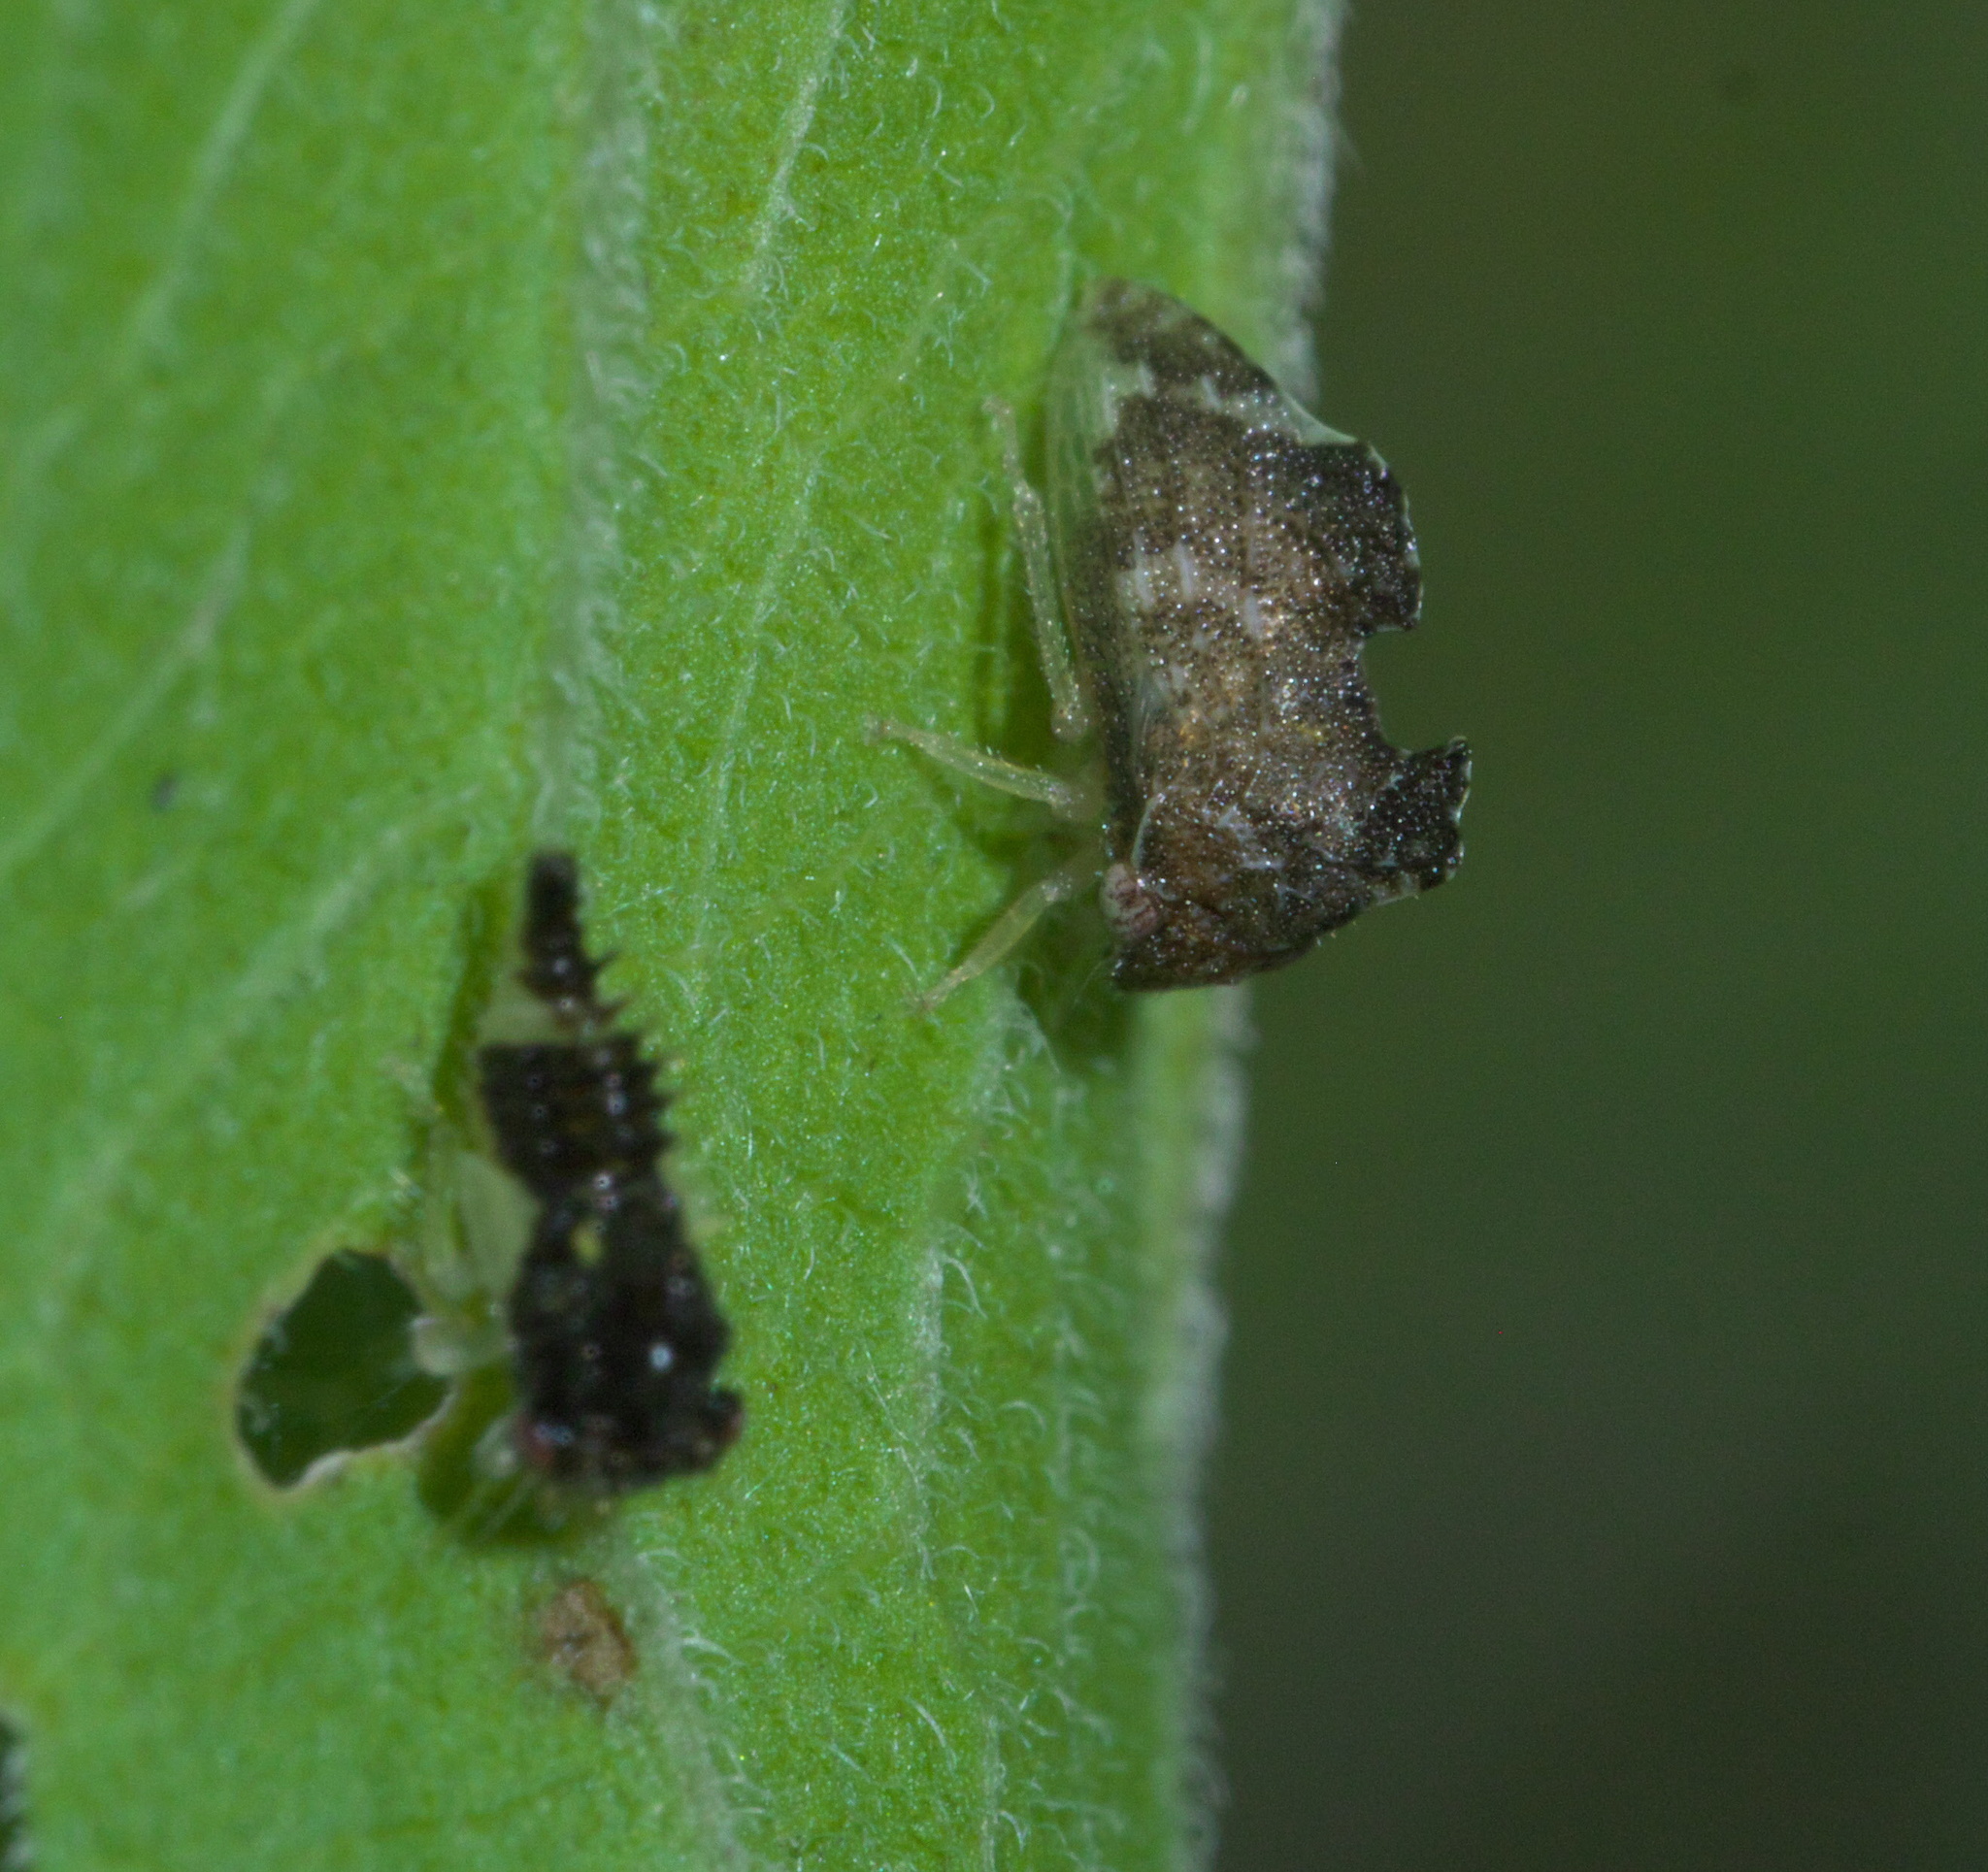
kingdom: Animalia
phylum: Arthropoda
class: Insecta
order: Hemiptera
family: Membracidae
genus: Entylia
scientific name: Entylia carinata
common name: Keeled treehopper
